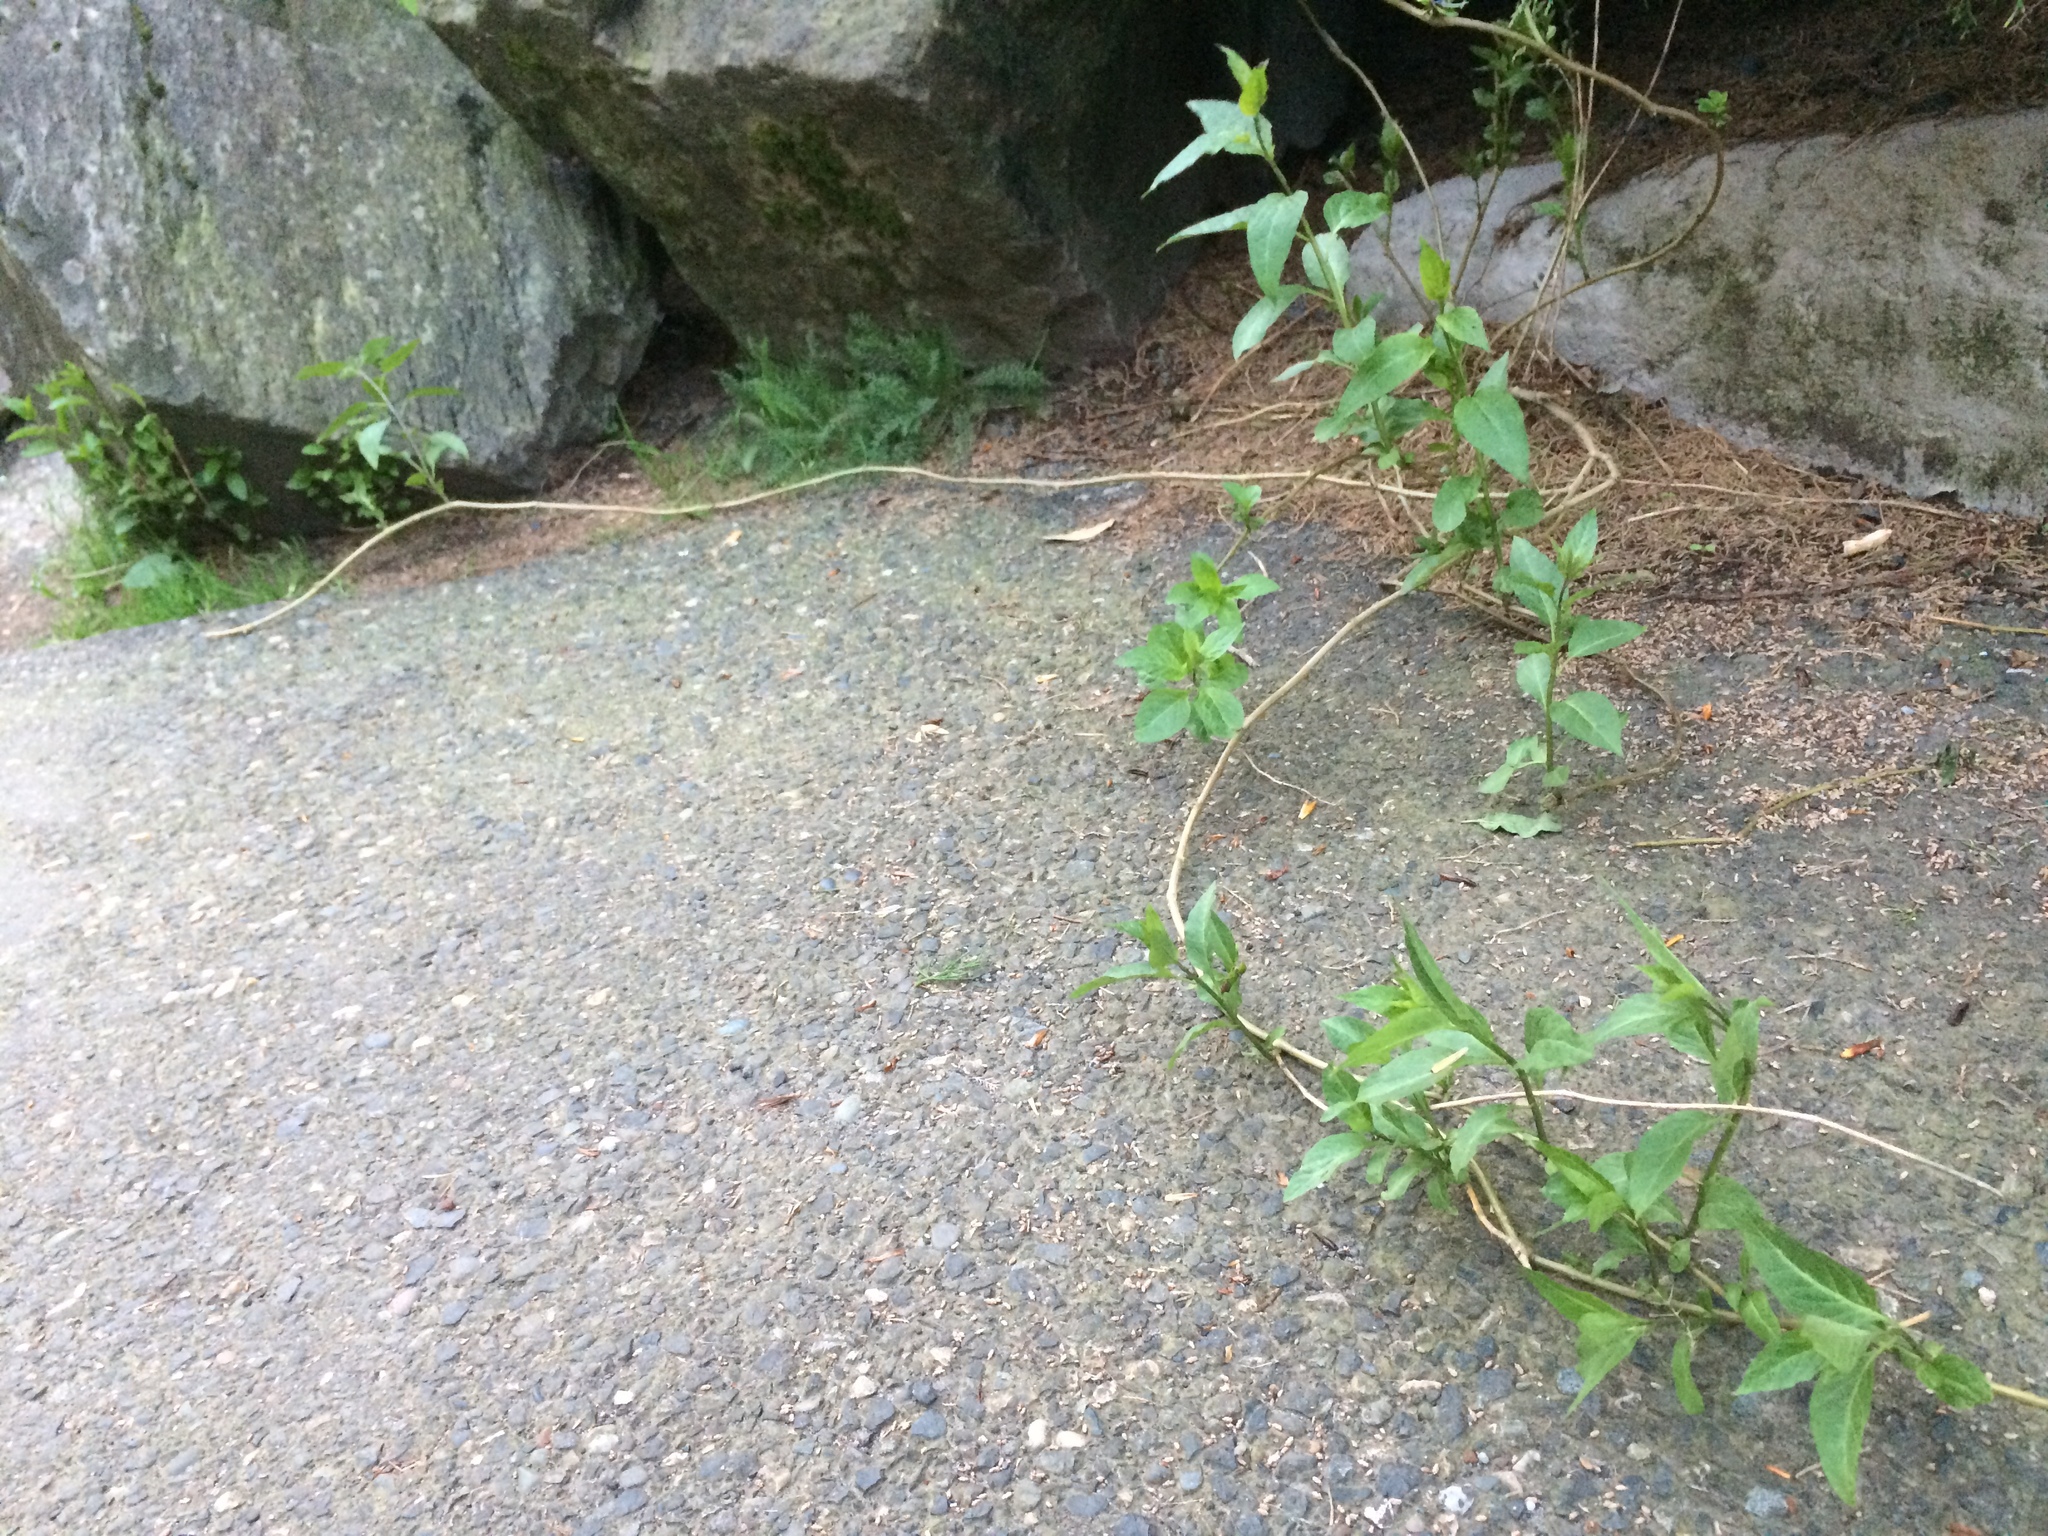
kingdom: Plantae
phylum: Tracheophyta
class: Magnoliopsida
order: Solanales
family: Solanaceae
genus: Solanum
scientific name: Solanum dulcamara
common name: Climbing nightshade
